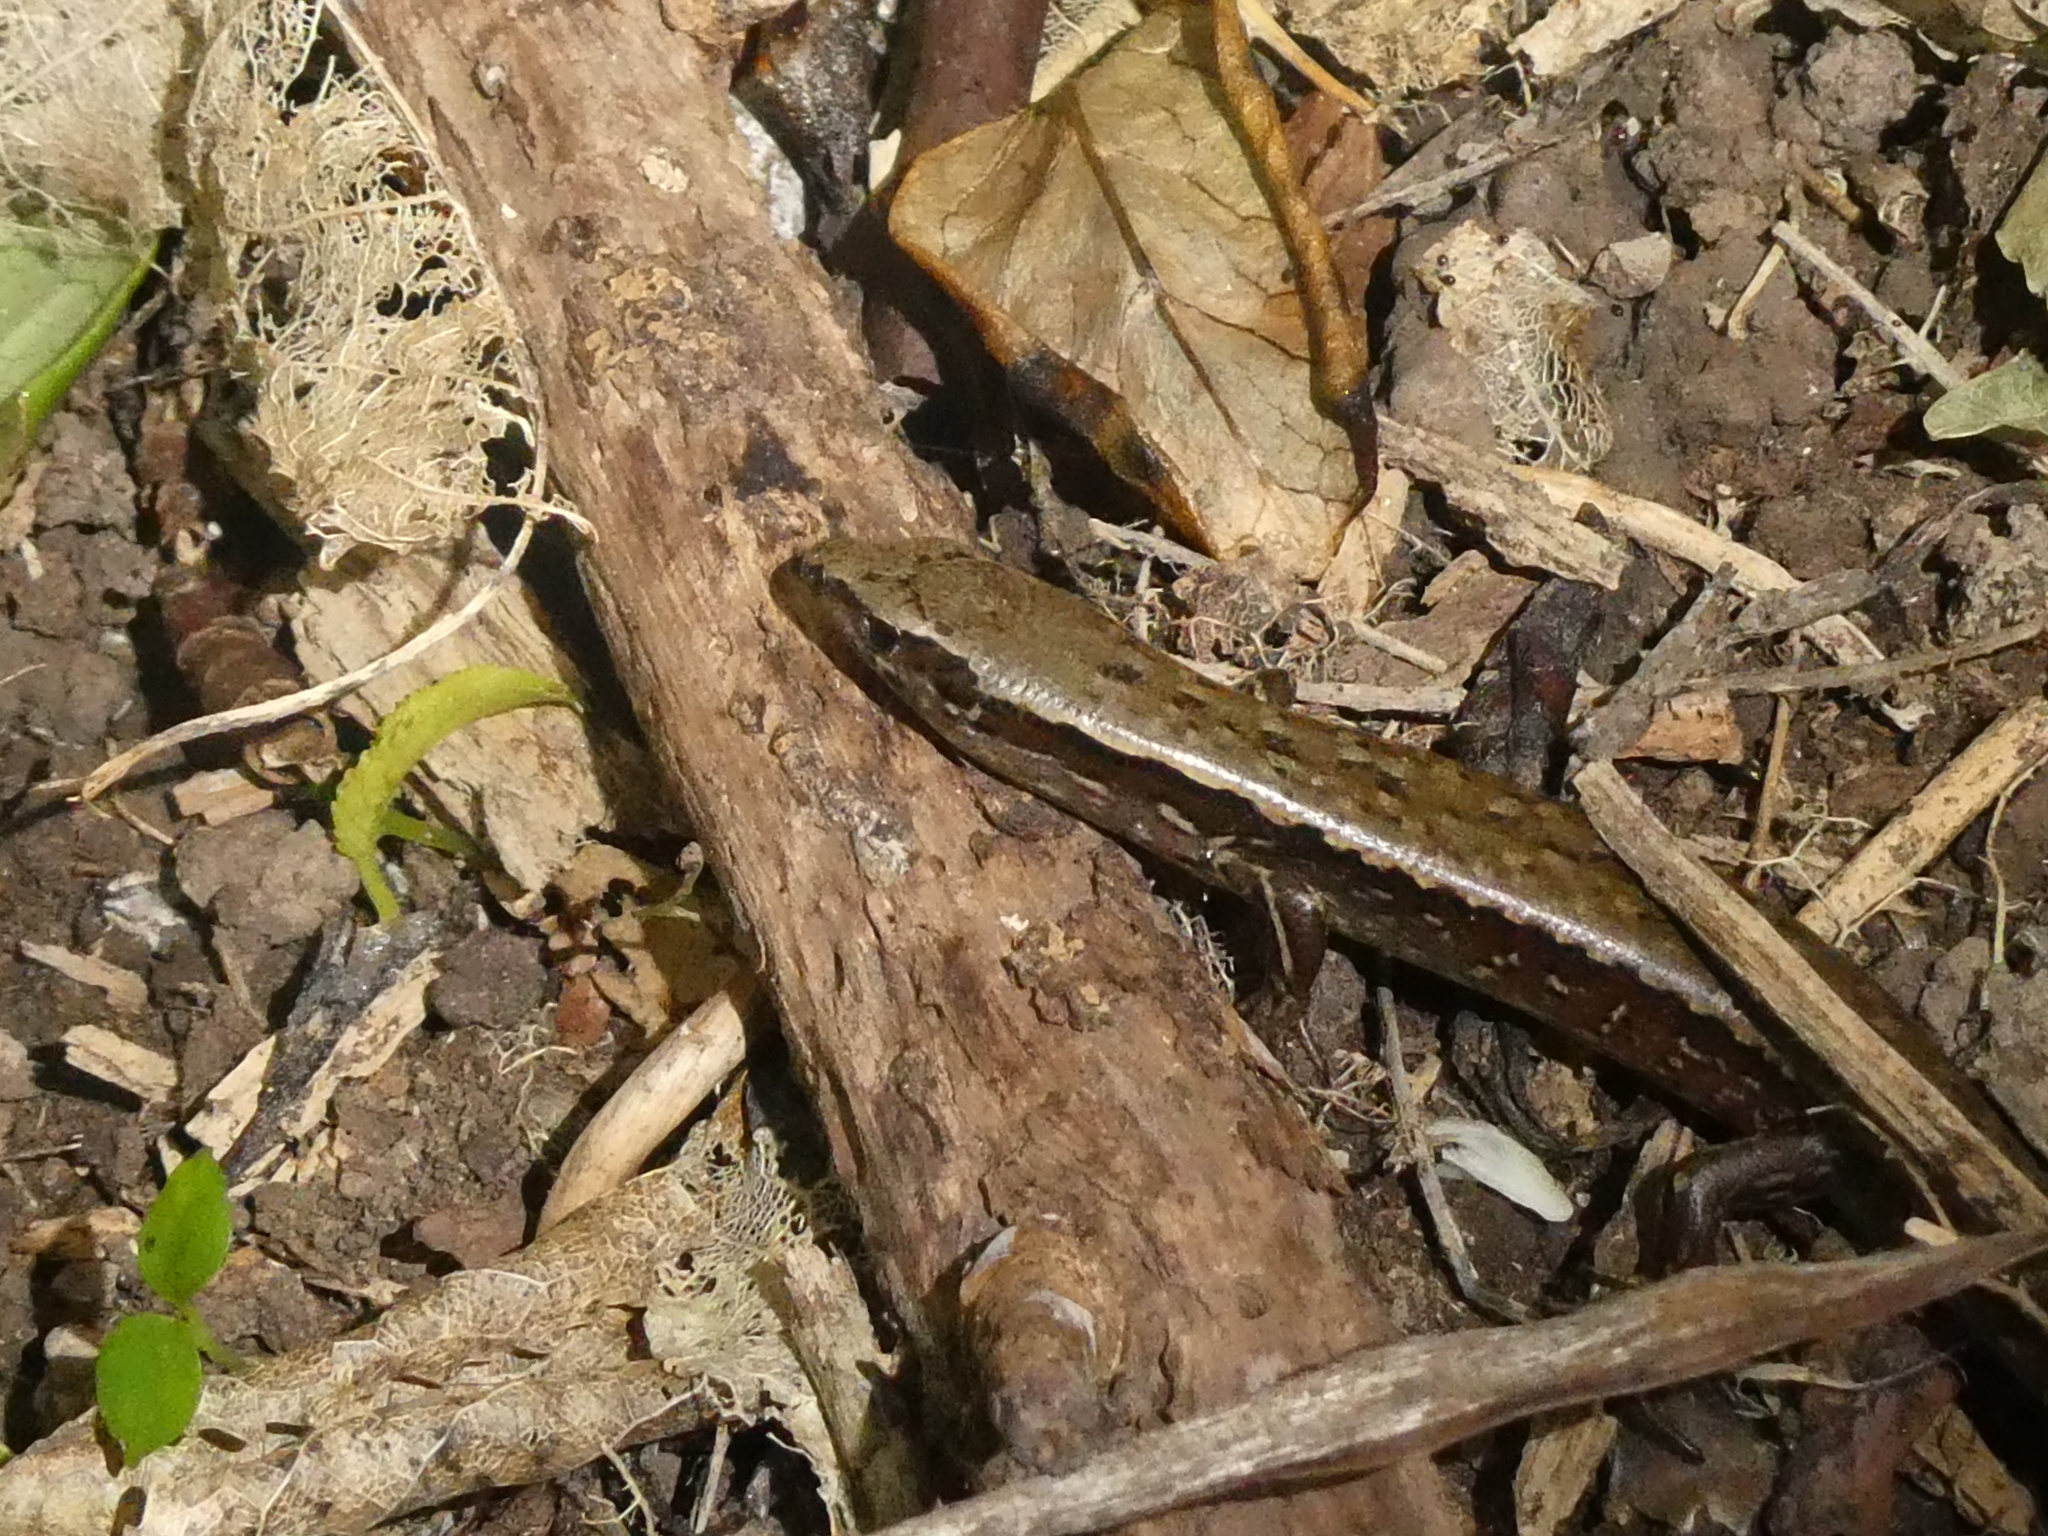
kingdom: Animalia
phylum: Chordata
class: Squamata
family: Scincidae
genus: Oligosoma
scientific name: Oligosoma zelandicum
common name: Brown skink
